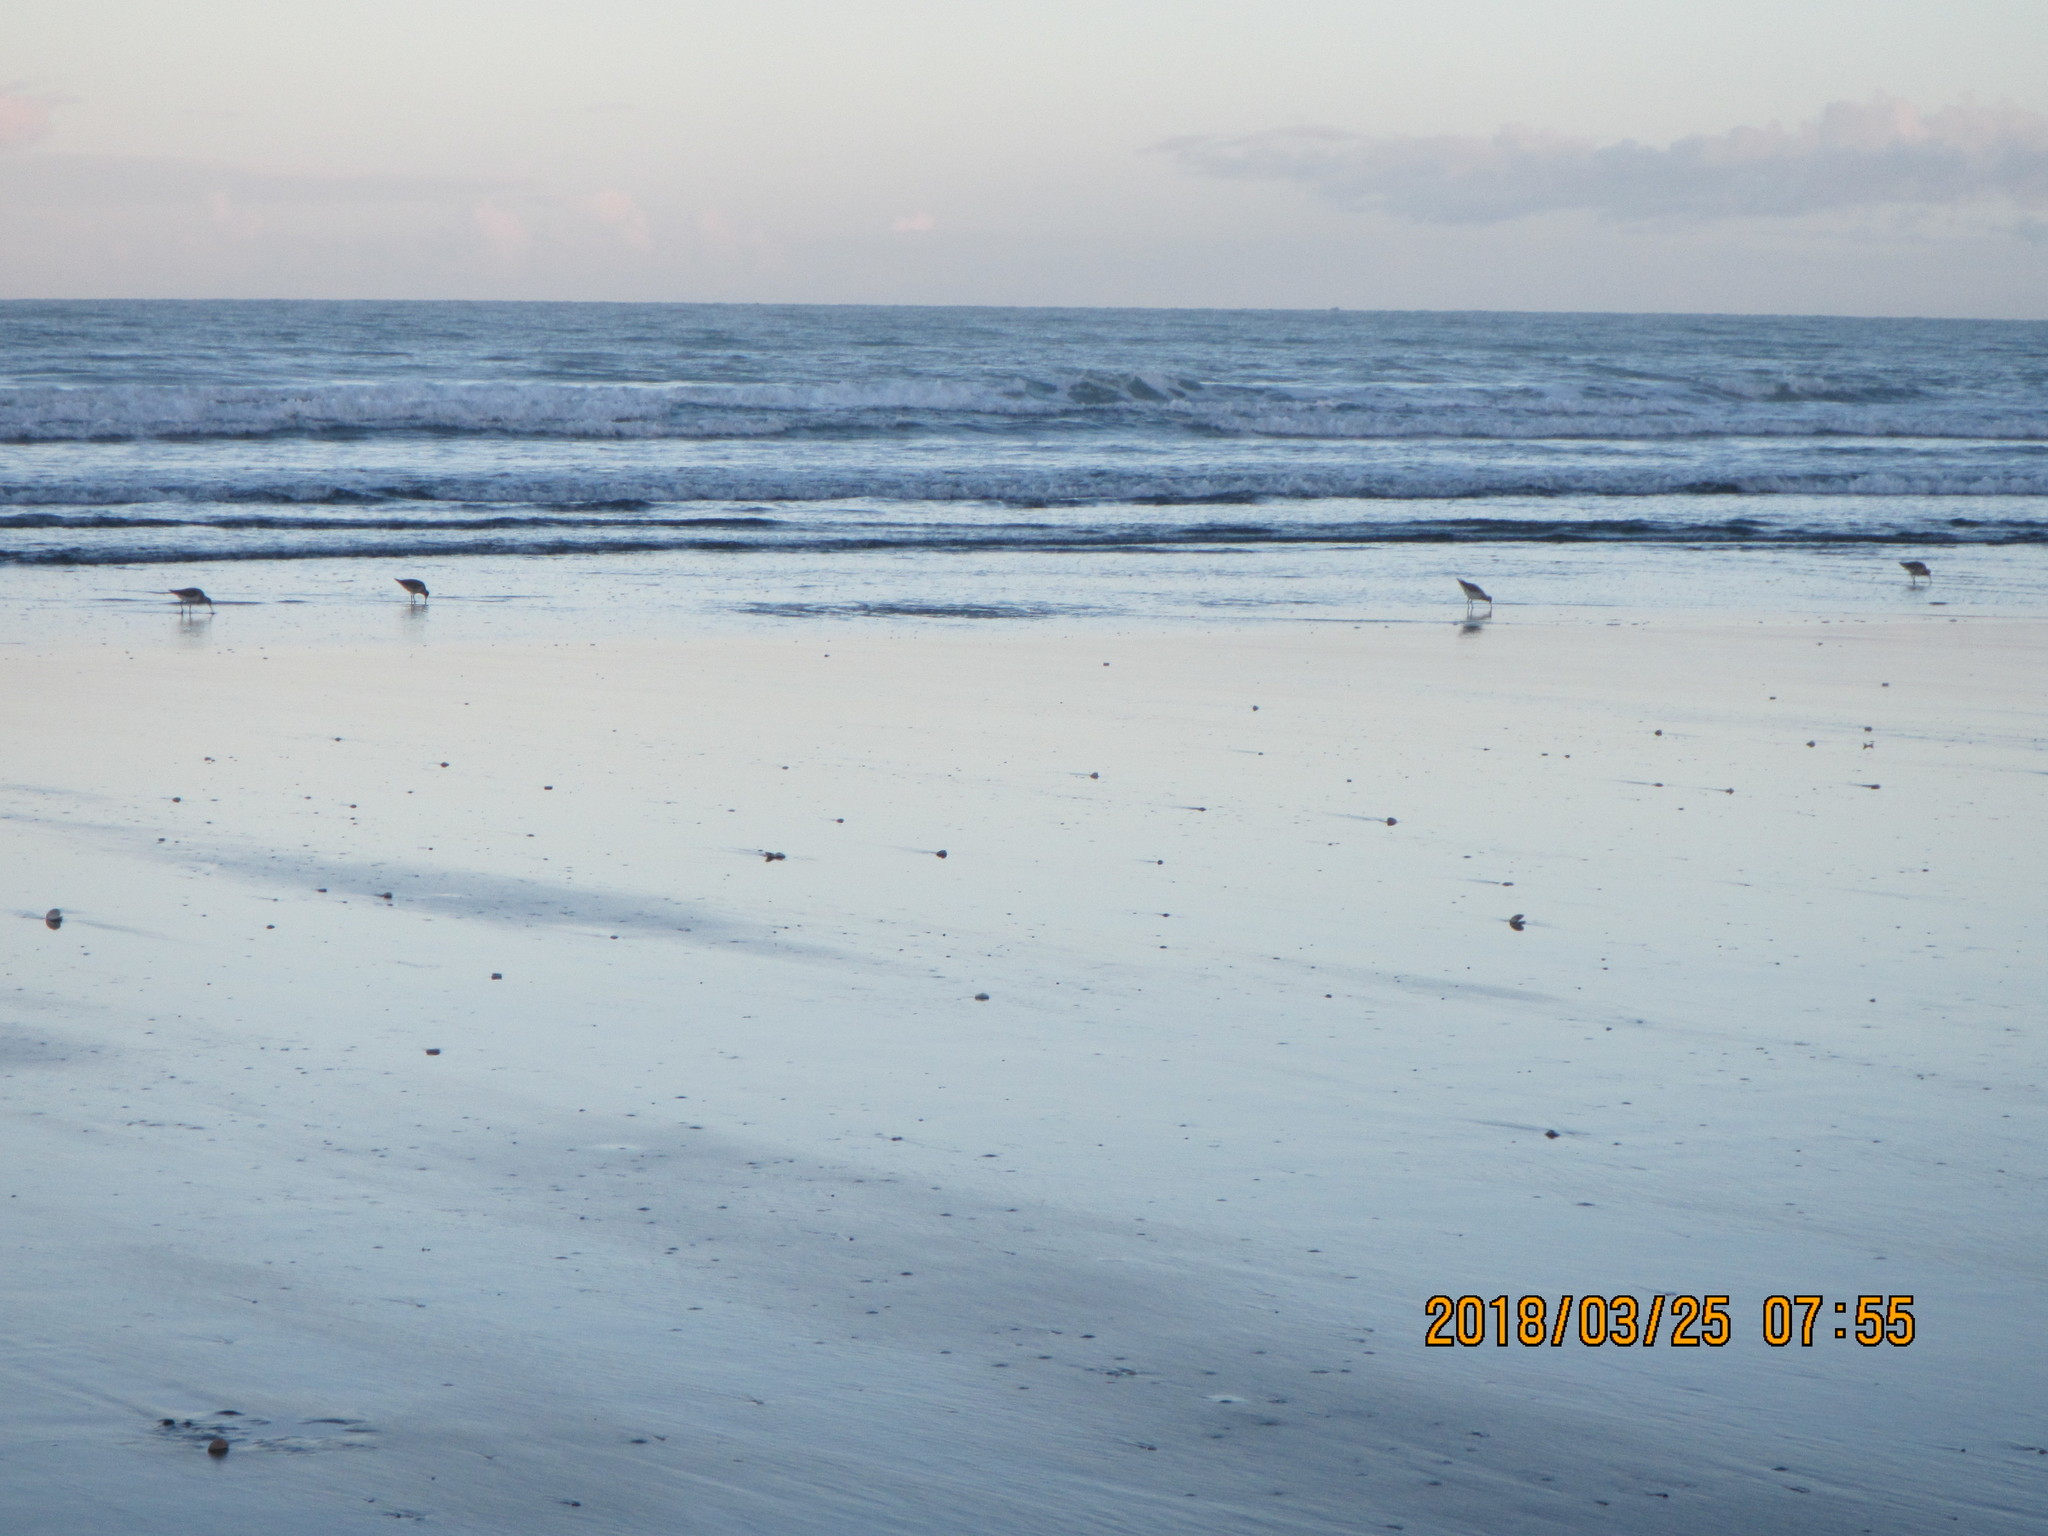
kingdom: Animalia
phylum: Chordata
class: Aves
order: Charadriiformes
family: Scolopacidae
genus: Limosa
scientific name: Limosa lapponica
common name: Bar-tailed godwit
